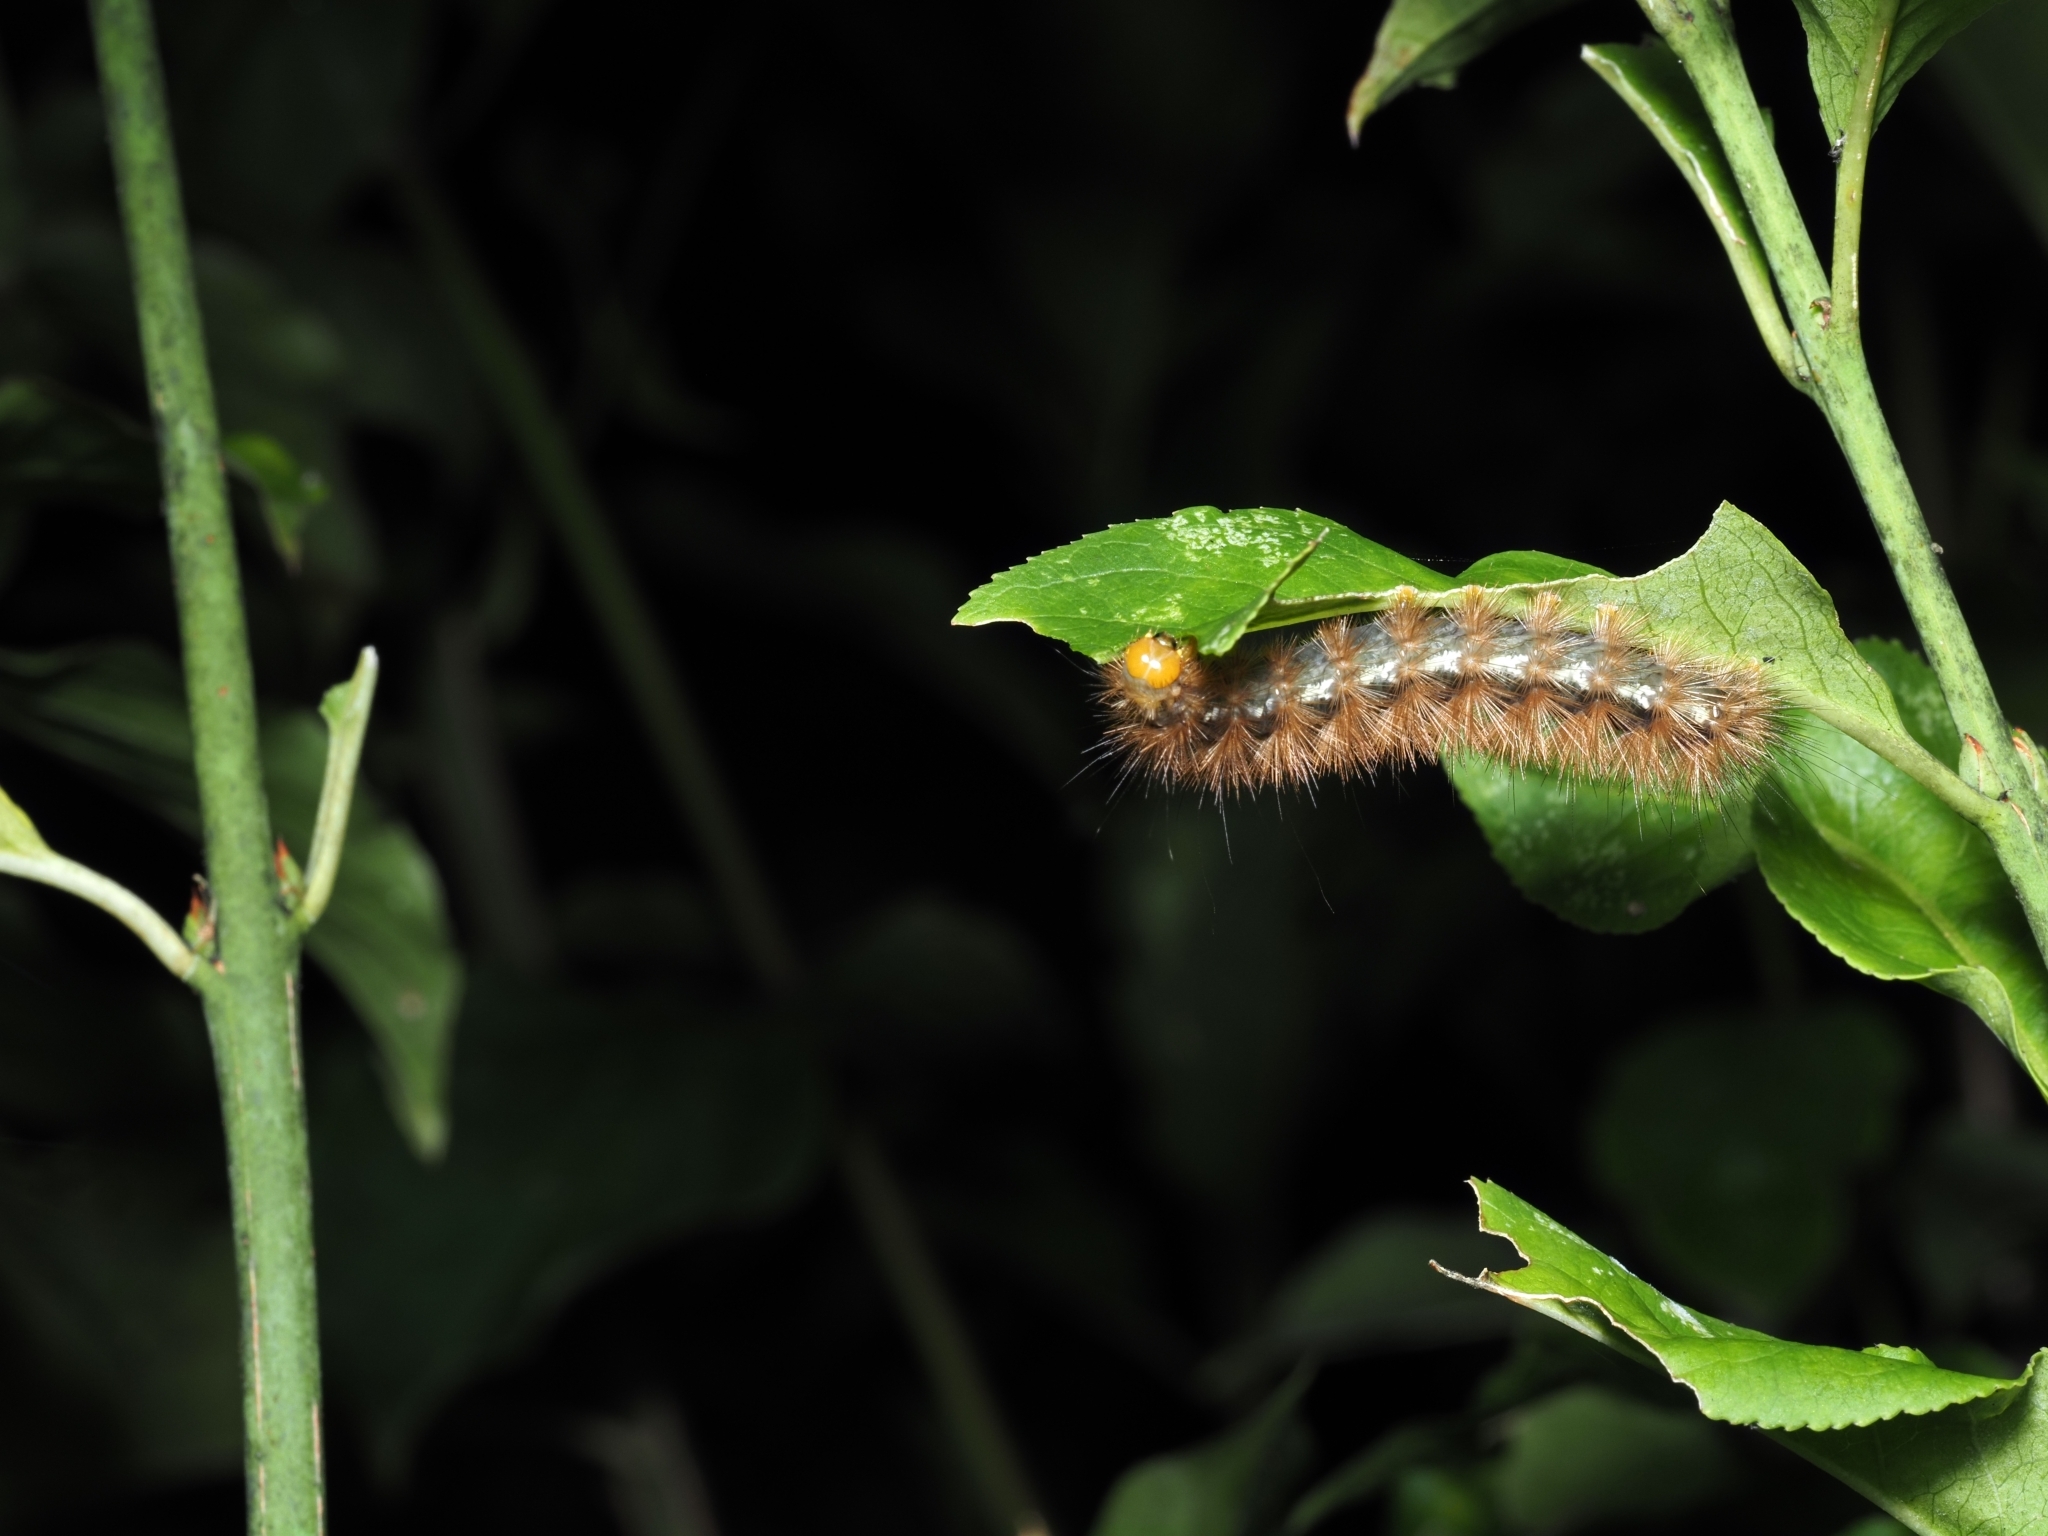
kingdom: Animalia
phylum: Arthropoda
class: Insecta
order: Lepidoptera
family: Erebidae
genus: Spilarctia
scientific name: Spilarctia lutea
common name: Buff ermine
